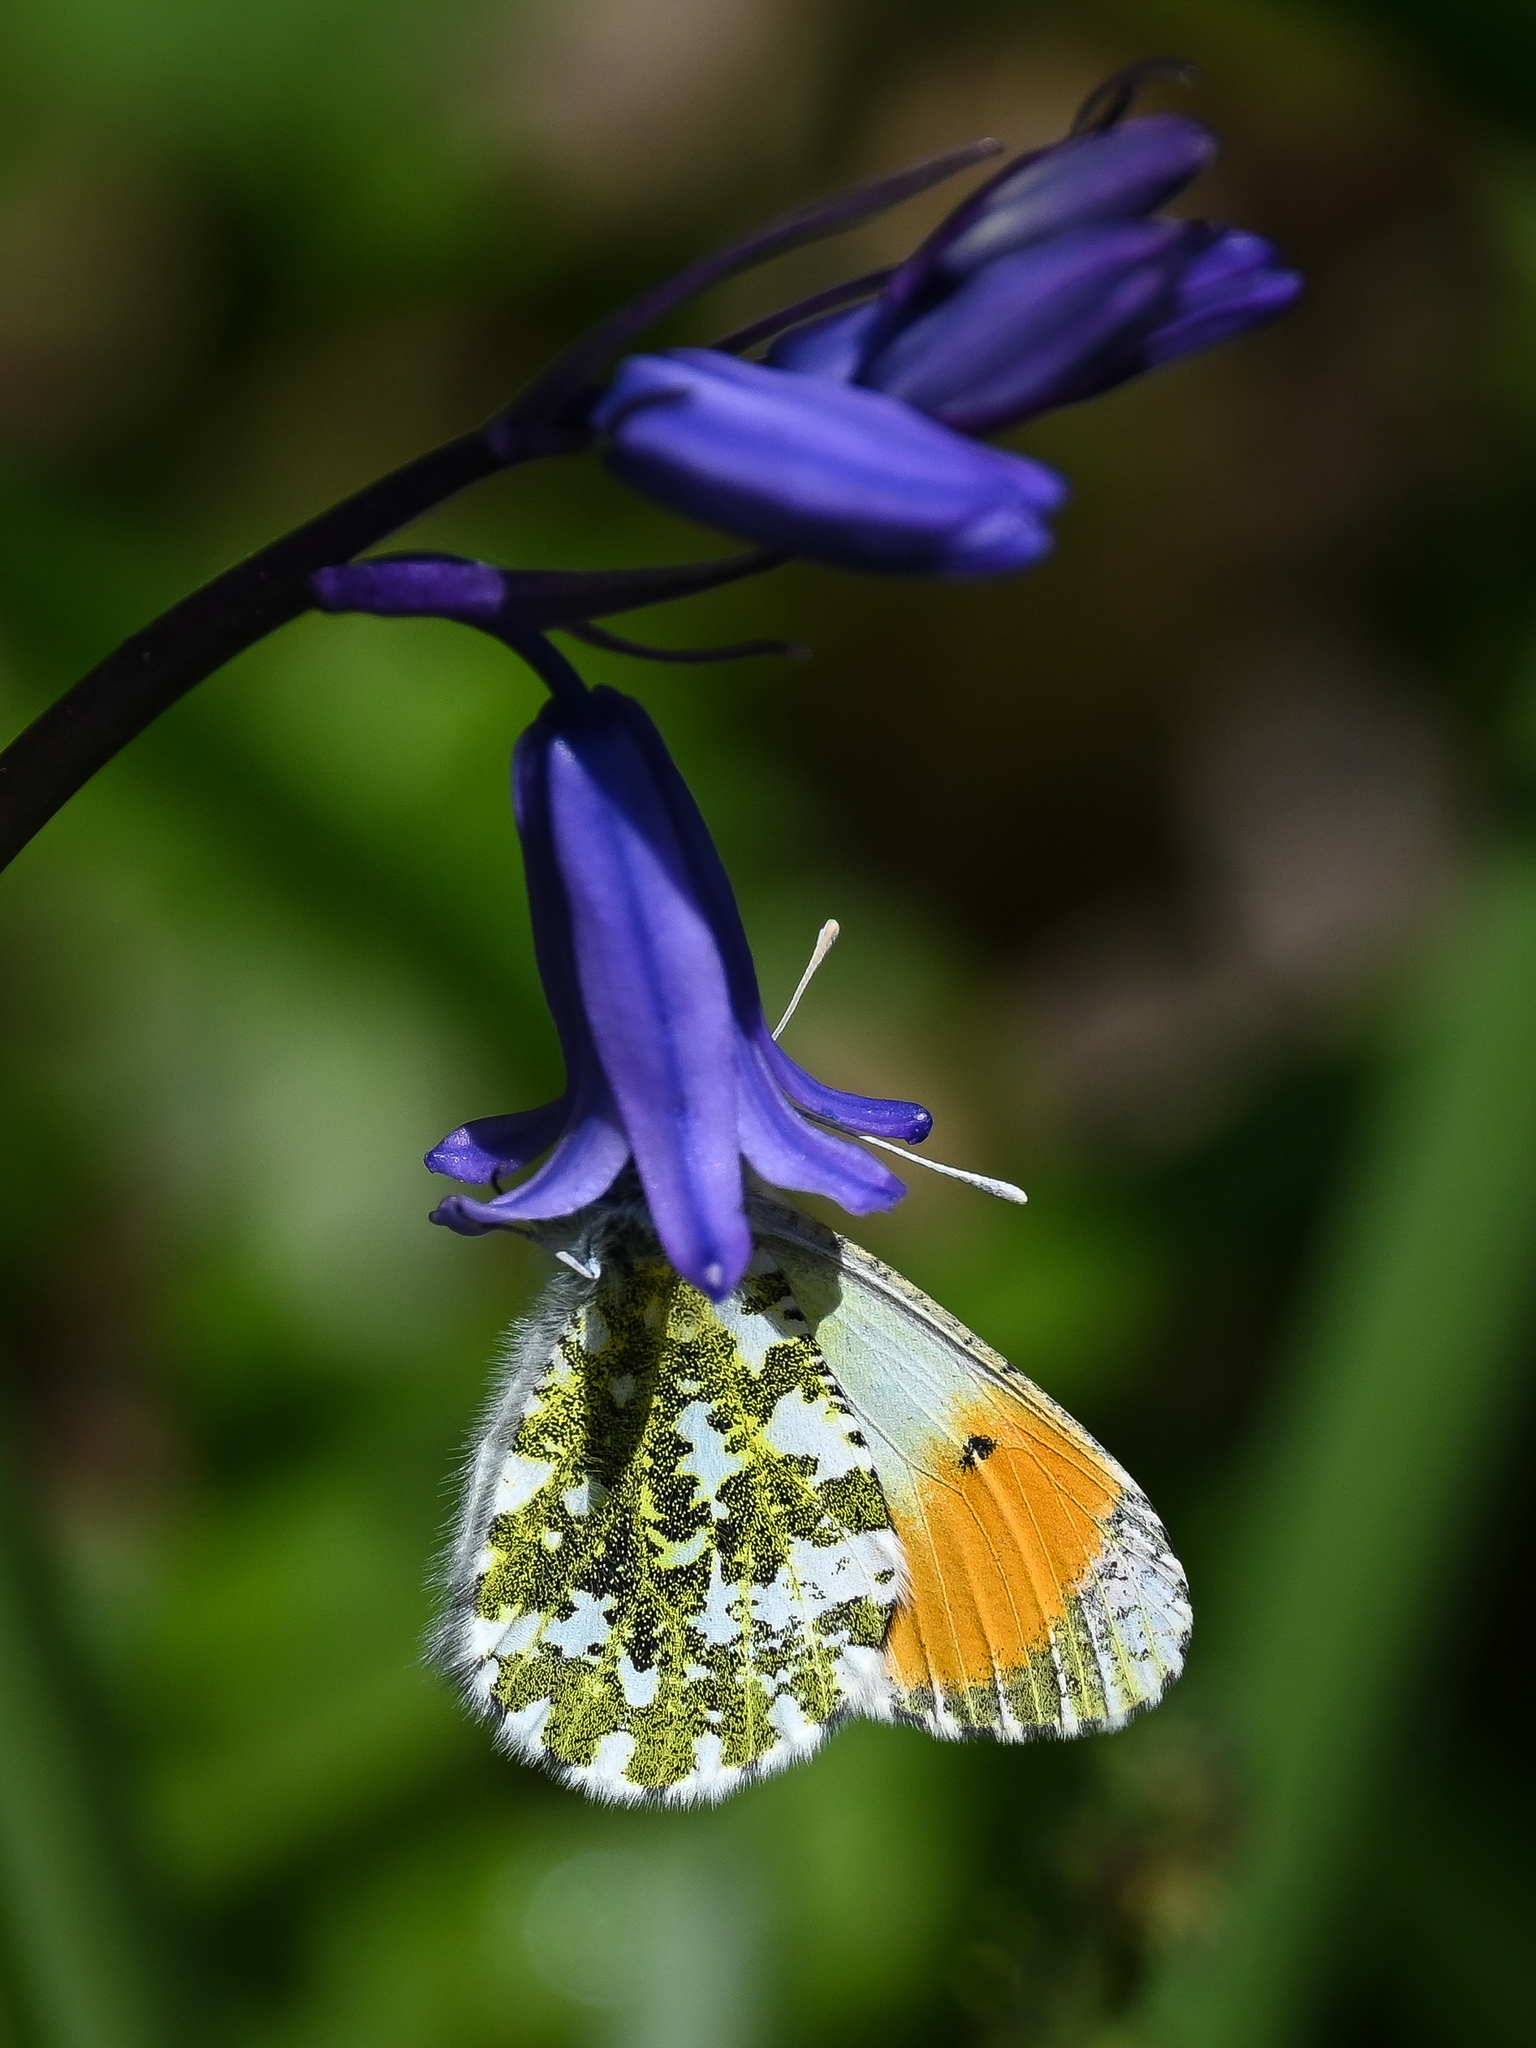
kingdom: Animalia
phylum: Arthropoda
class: Insecta
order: Lepidoptera
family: Pieridae
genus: Anthocharis
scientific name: Anthocharis cardamines
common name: Orange-tip
